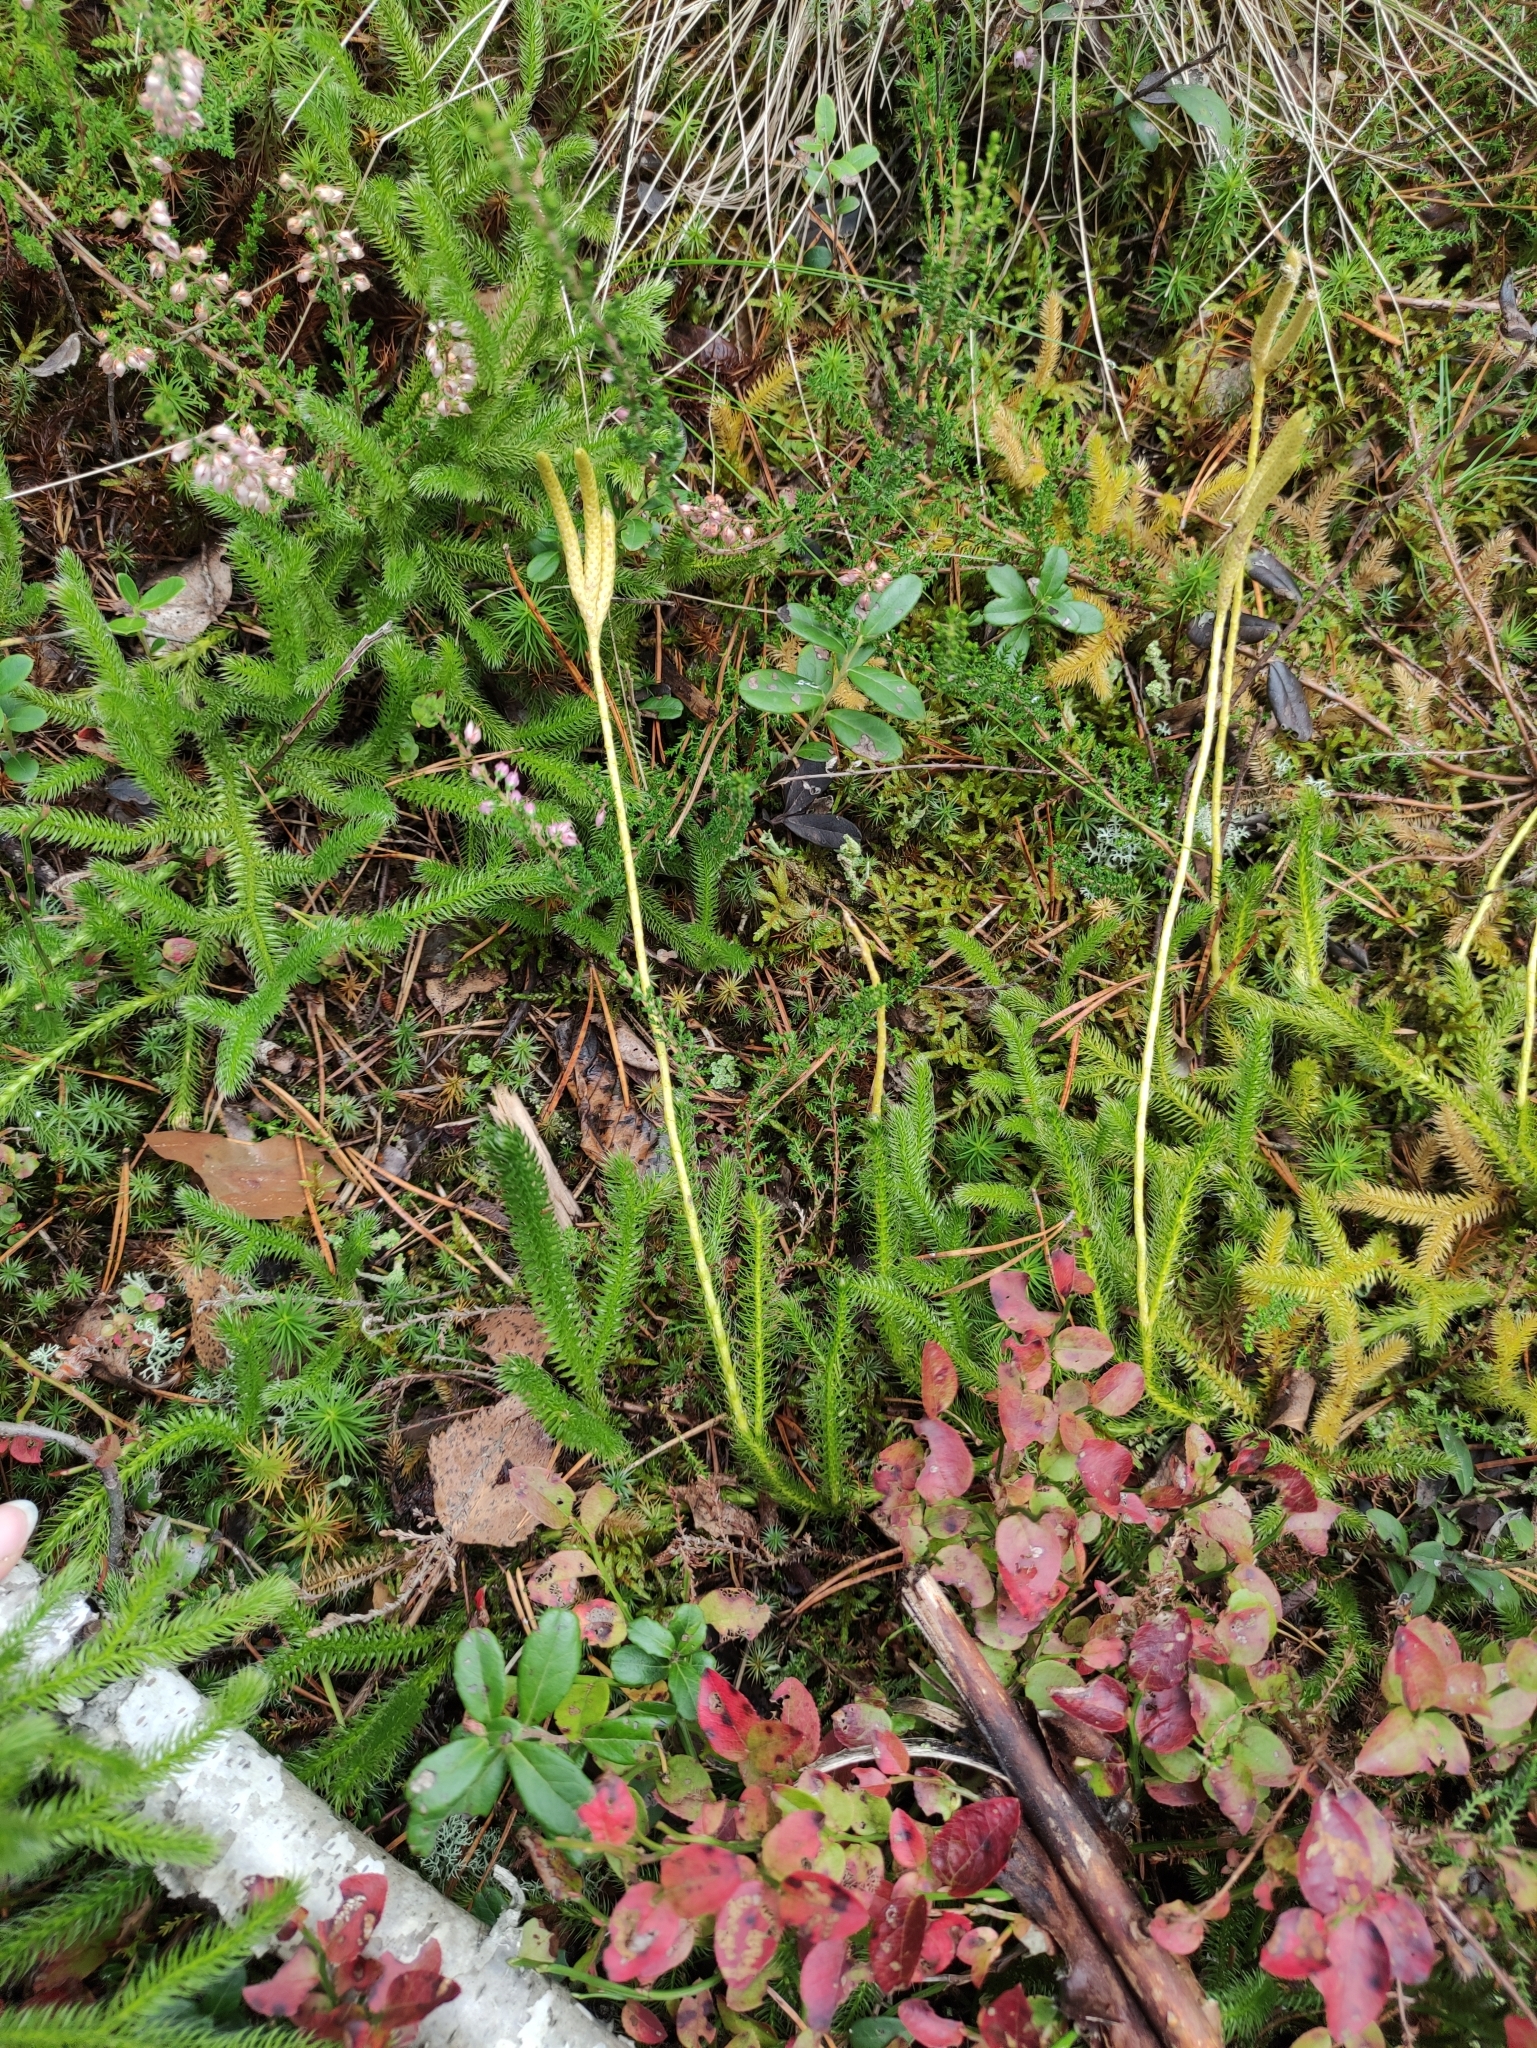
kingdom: Plantae
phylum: Tracheophyta
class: Lycopodiopsida
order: Lycopodiales
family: Lycopodiaceae
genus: Lycopodium
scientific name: Lycopodium clavatum
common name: Stag's-horn clubmoss
